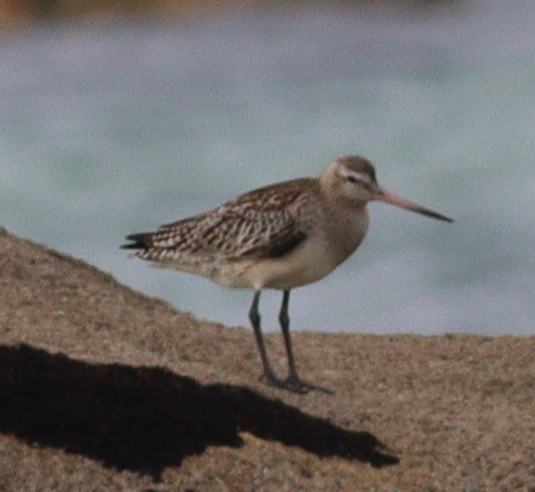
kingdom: Animalia
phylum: Chordata
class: Aves
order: Charadriiformes
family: Scolopacidae
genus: Limosa
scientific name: Limosa lapponica
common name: Bar-tailed godwit
